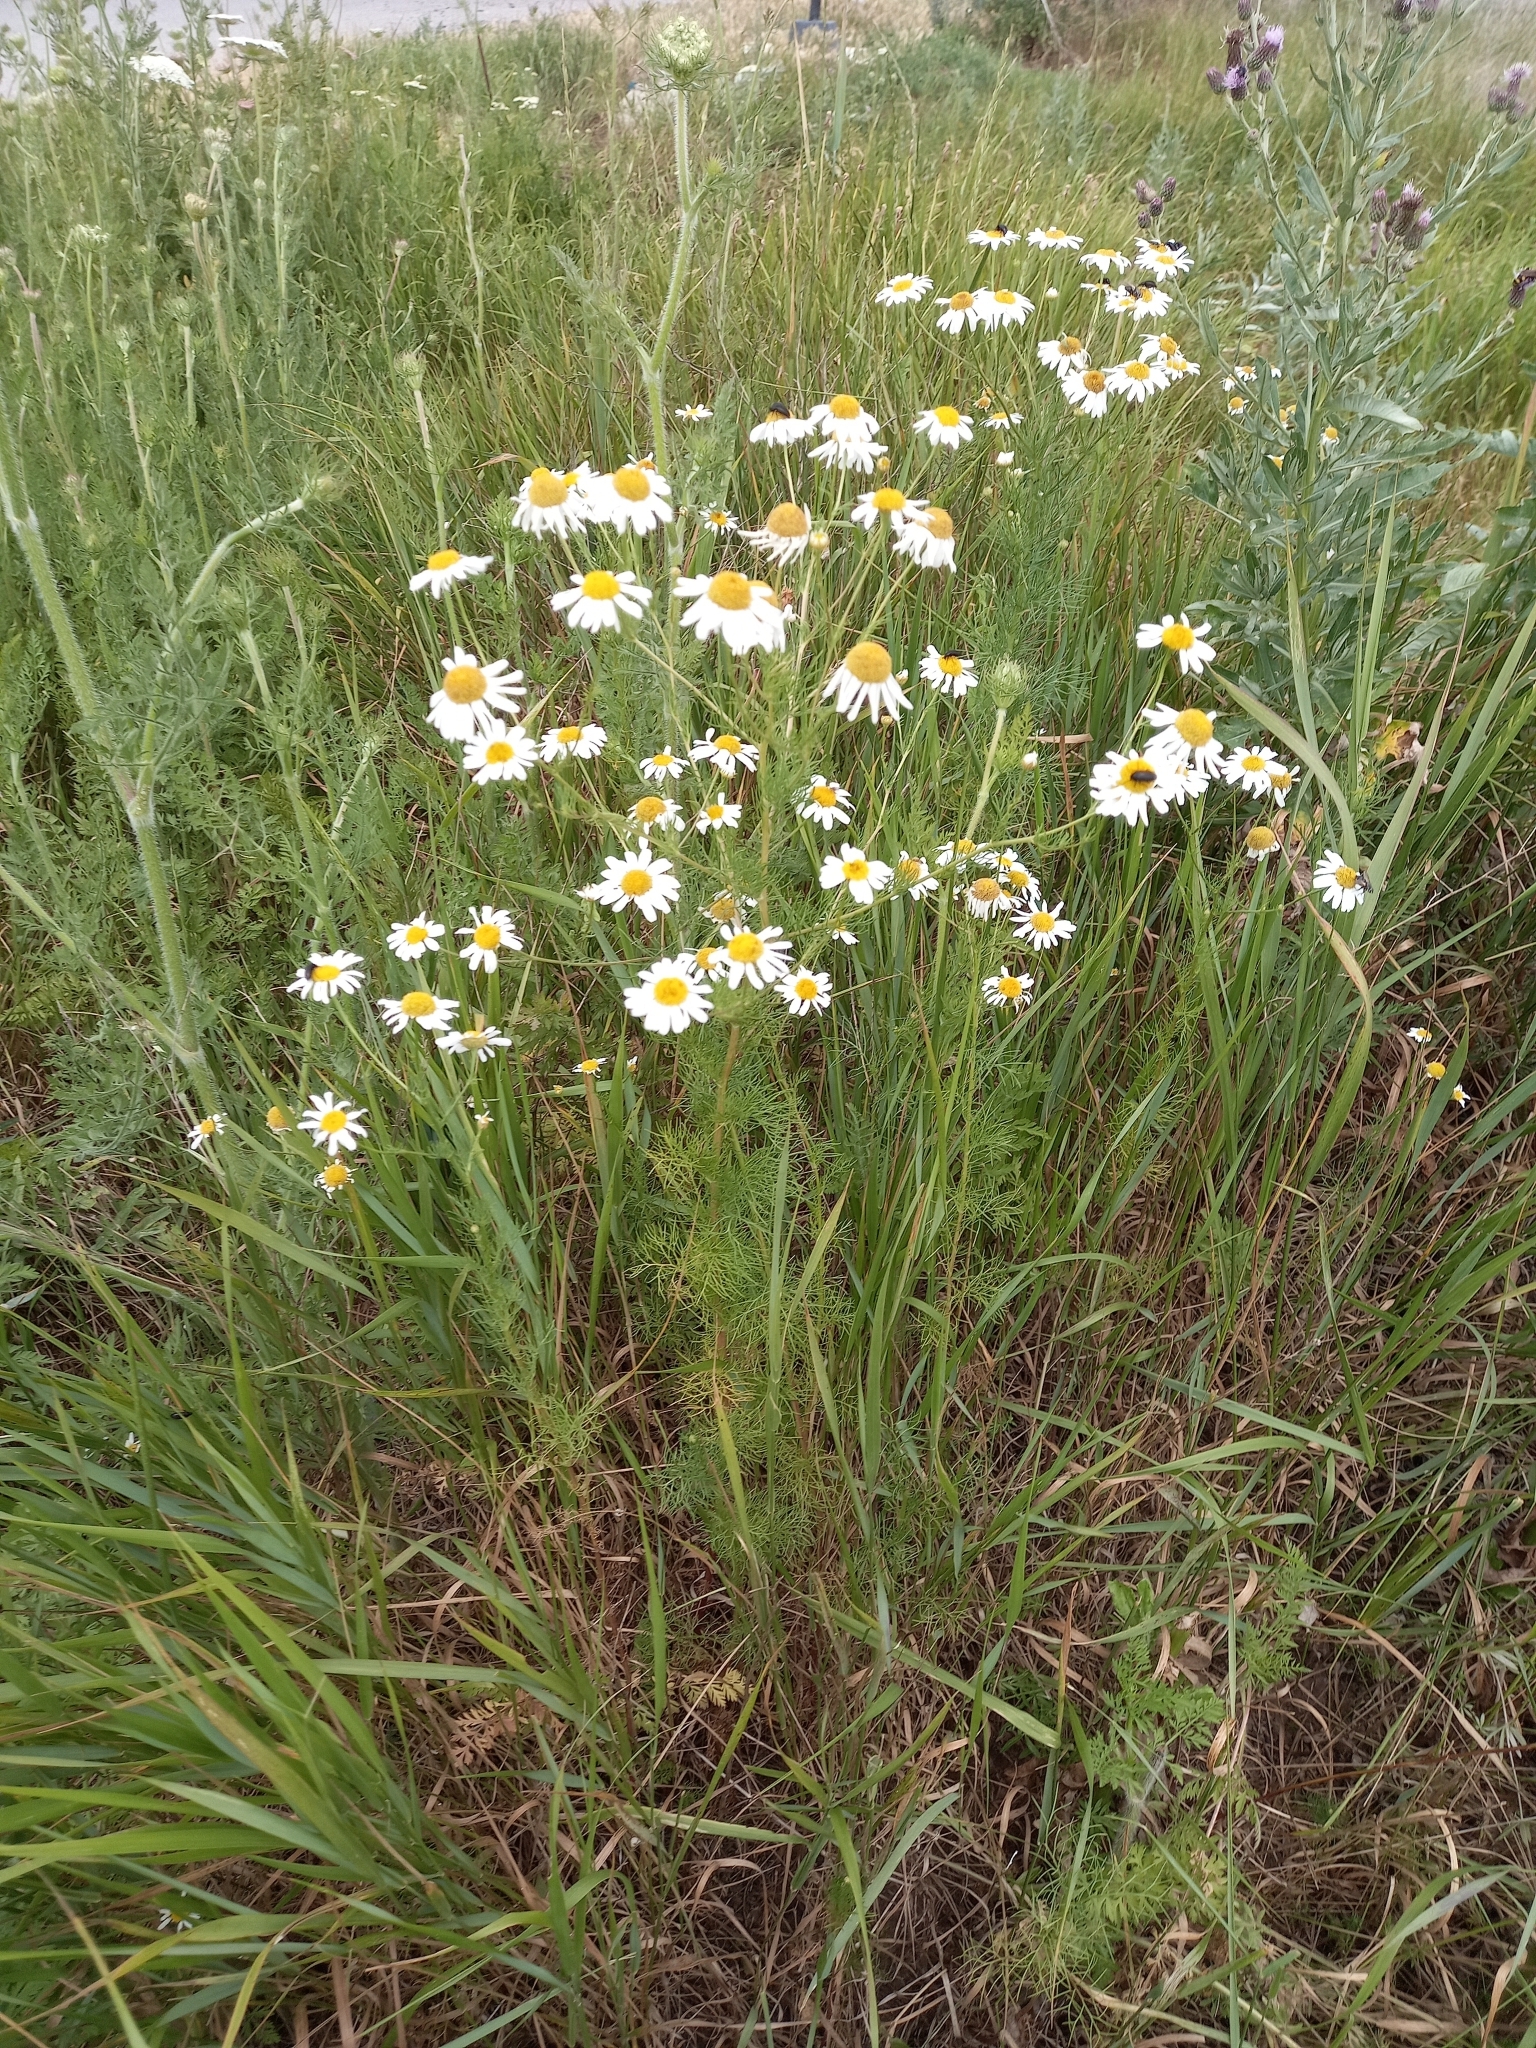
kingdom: Plantae
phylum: Tracheophyta
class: Magnoliopsida
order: Asterales
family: Asteraceae
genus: Tripleurospermum
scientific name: Tripleurospermum inodorum
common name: Scentless mayweed
